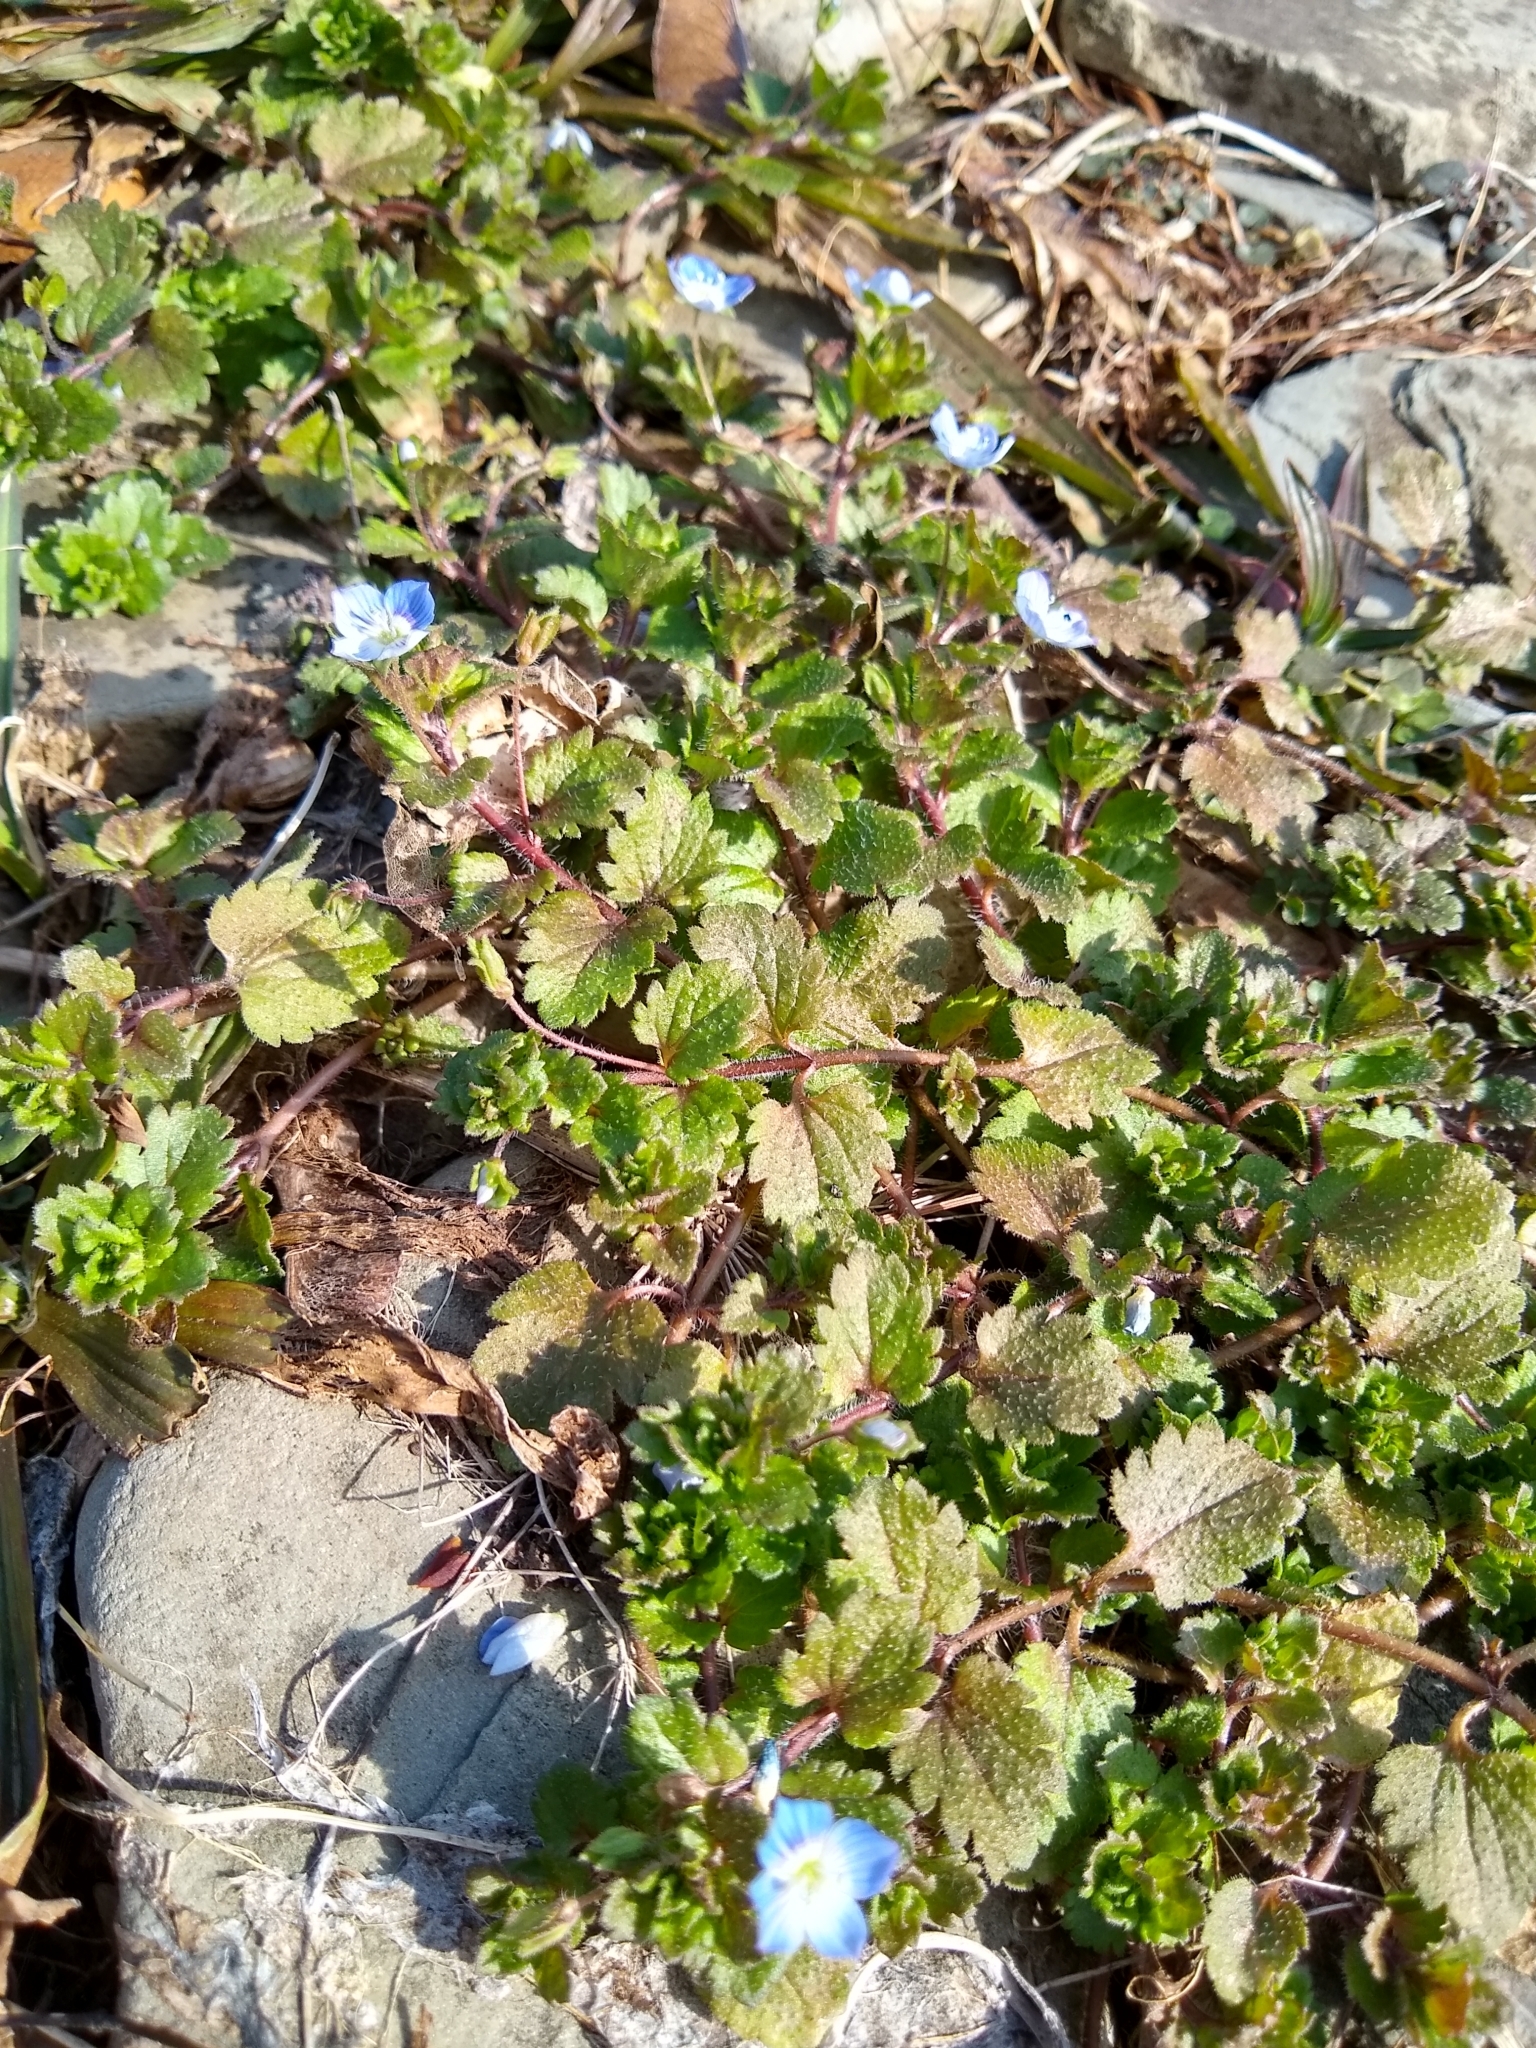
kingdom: Plantae
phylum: Tracheophyta
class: Magnoliopsida
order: Lamiales
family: Plantaginaceae
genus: Veronica
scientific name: Veronica persica
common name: Common field-speedwell
